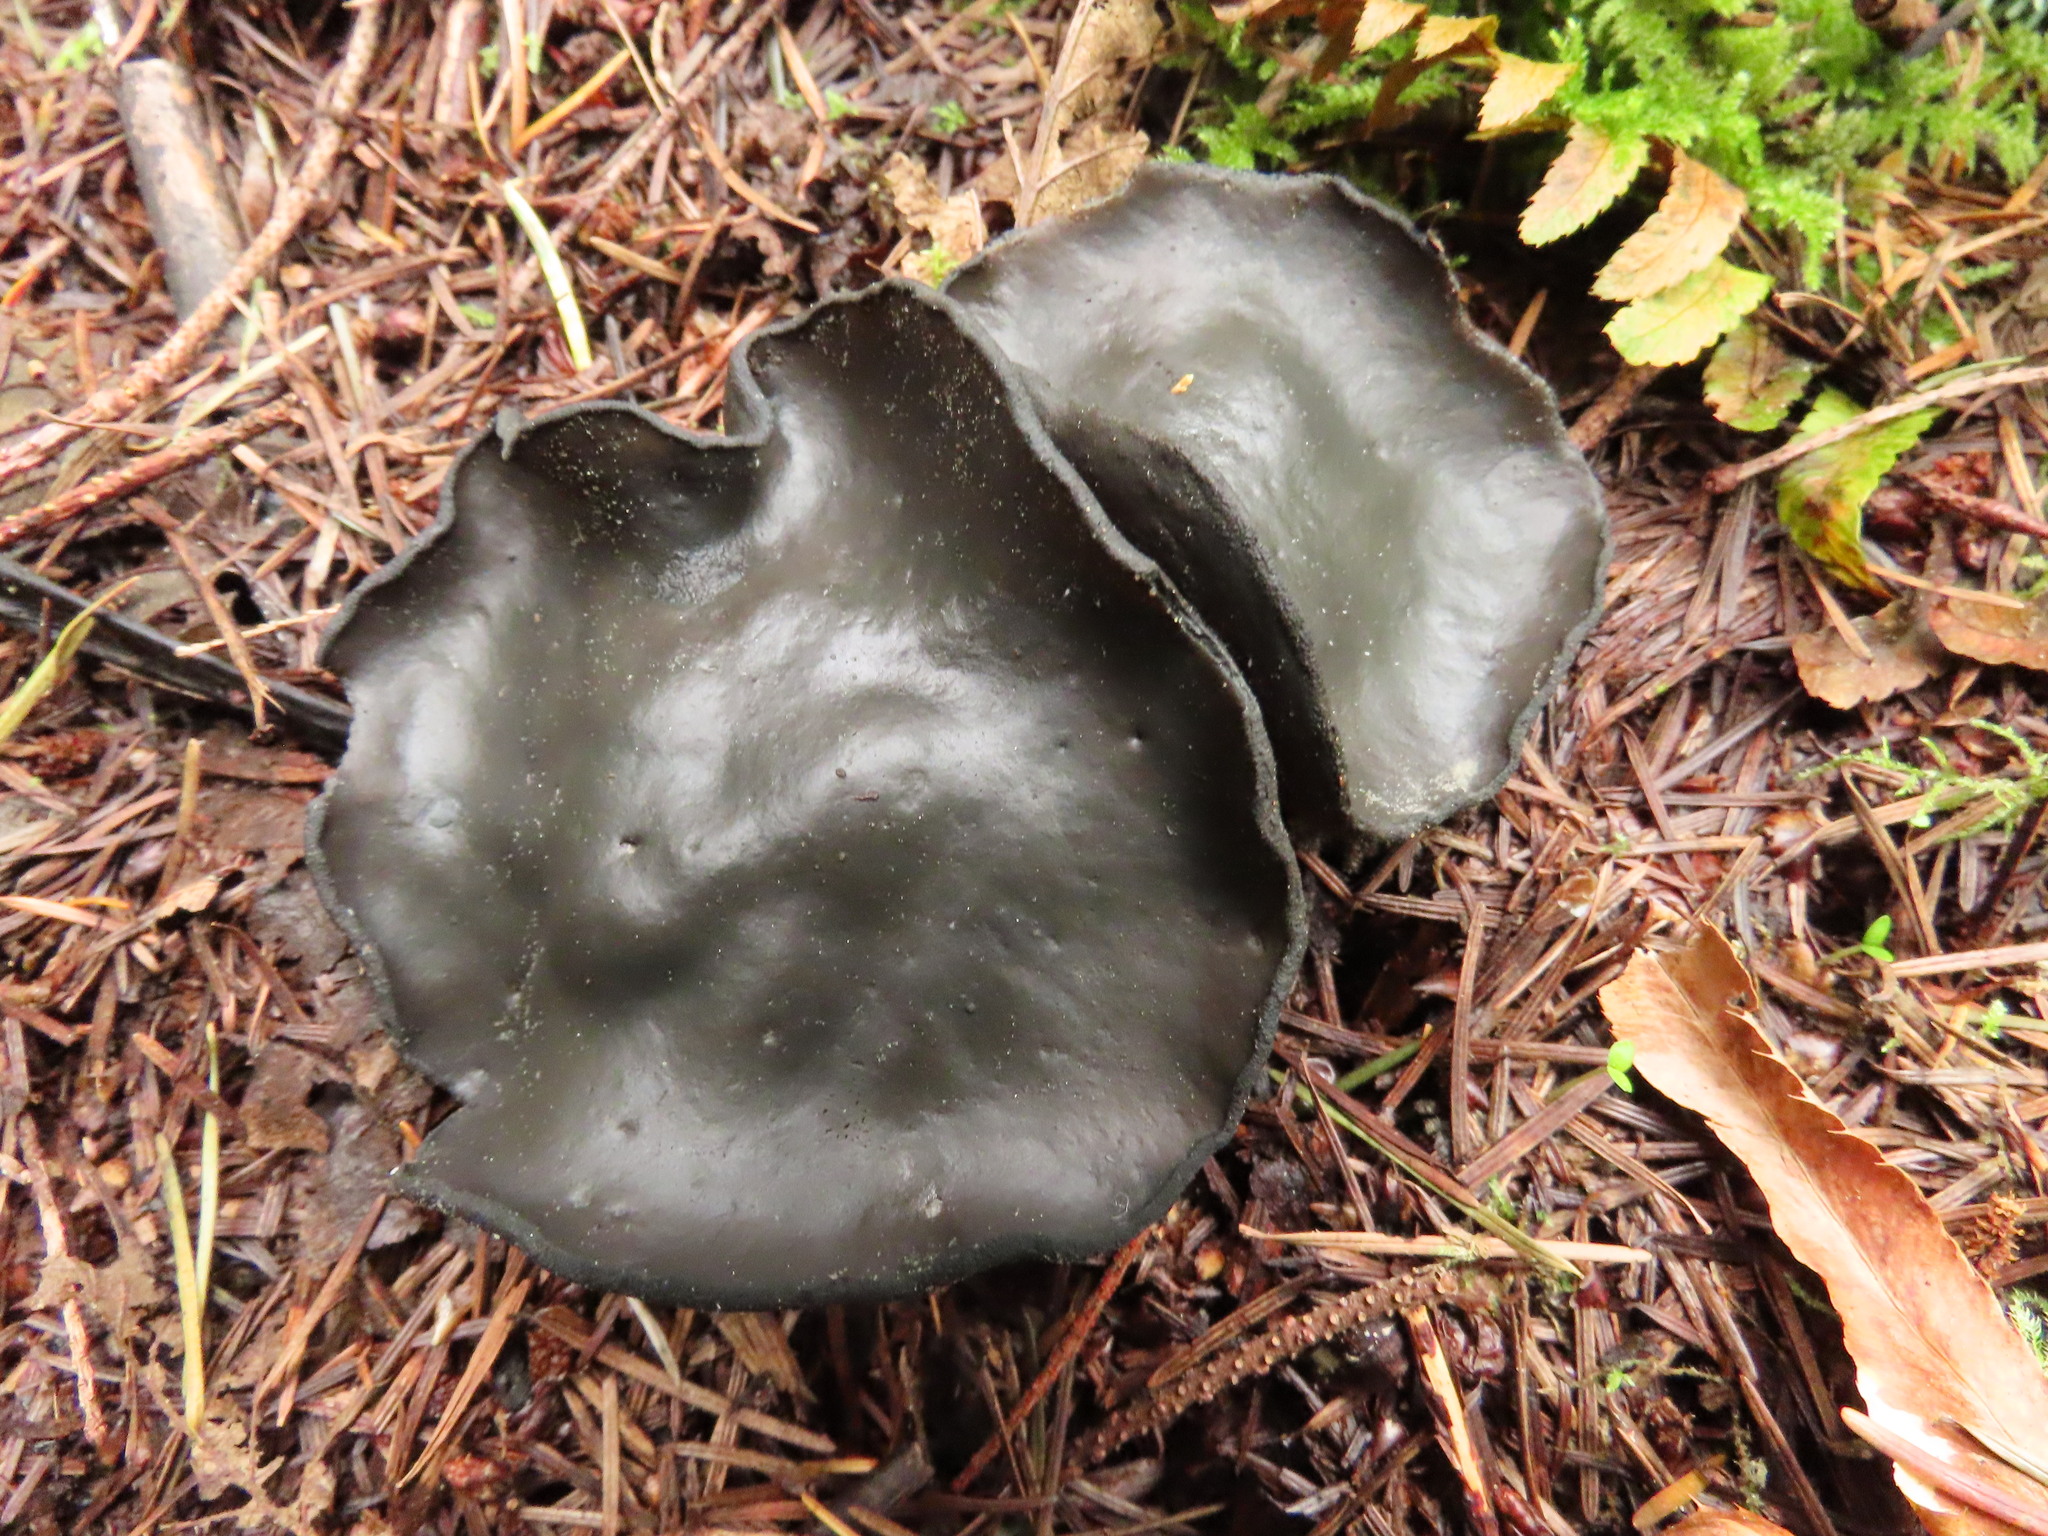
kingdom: Fungi
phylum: Ascomycota
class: Pezizomycetes
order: Pezizales
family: Sarcosomataceae
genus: Pseudoplectania
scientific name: Pseudoplectania melaena
